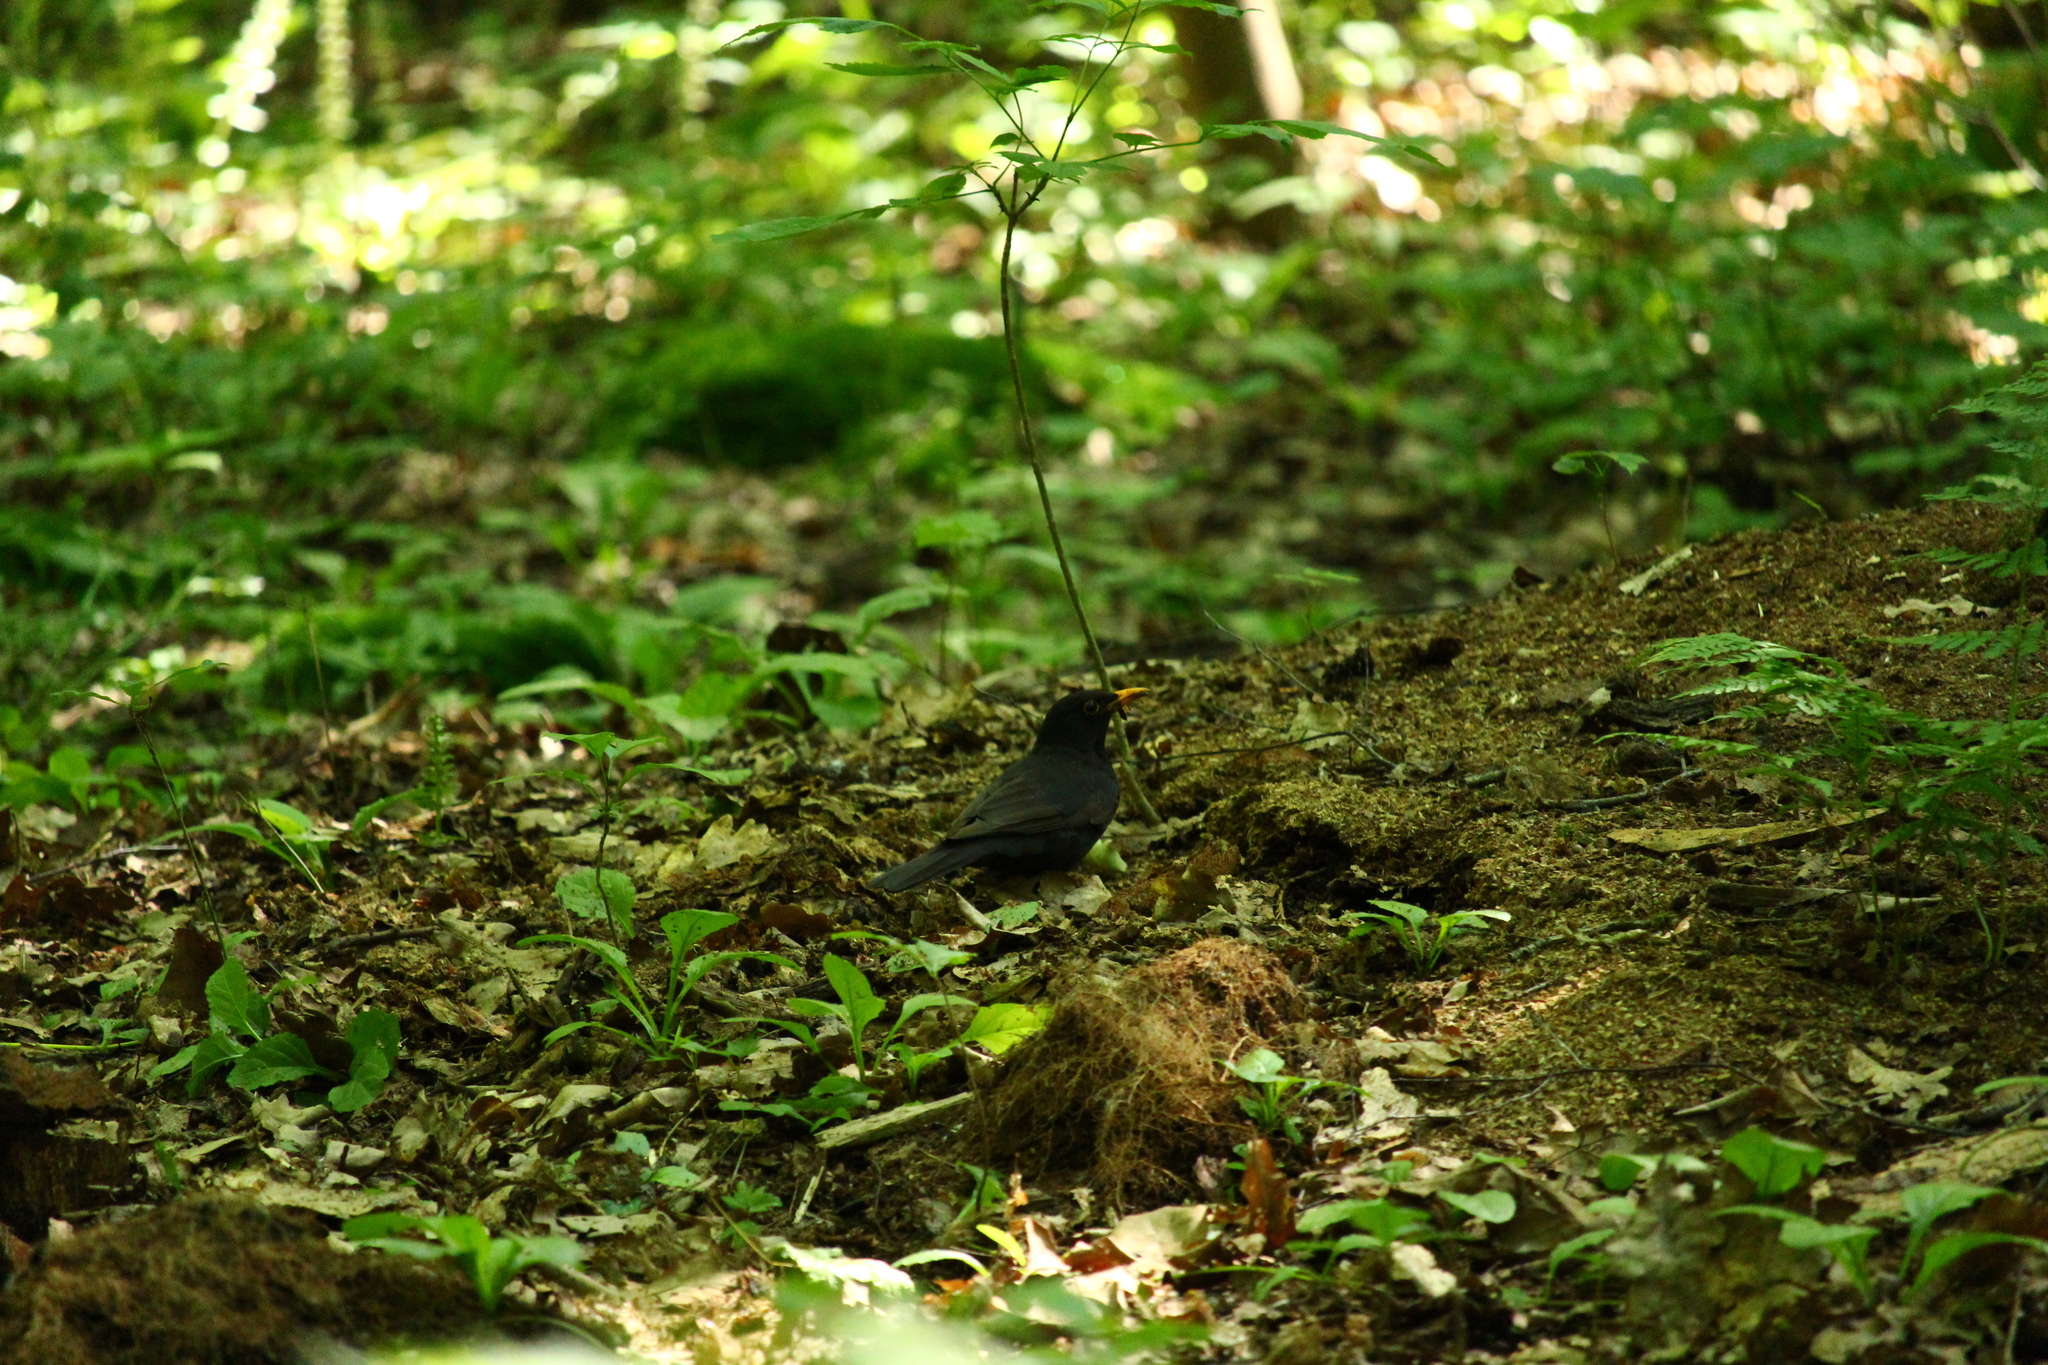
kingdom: Animalia
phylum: Chordata
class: Aves
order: Passeriformes
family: Turdidae
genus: Turdus
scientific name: Turdus merula
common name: Common blackbird
